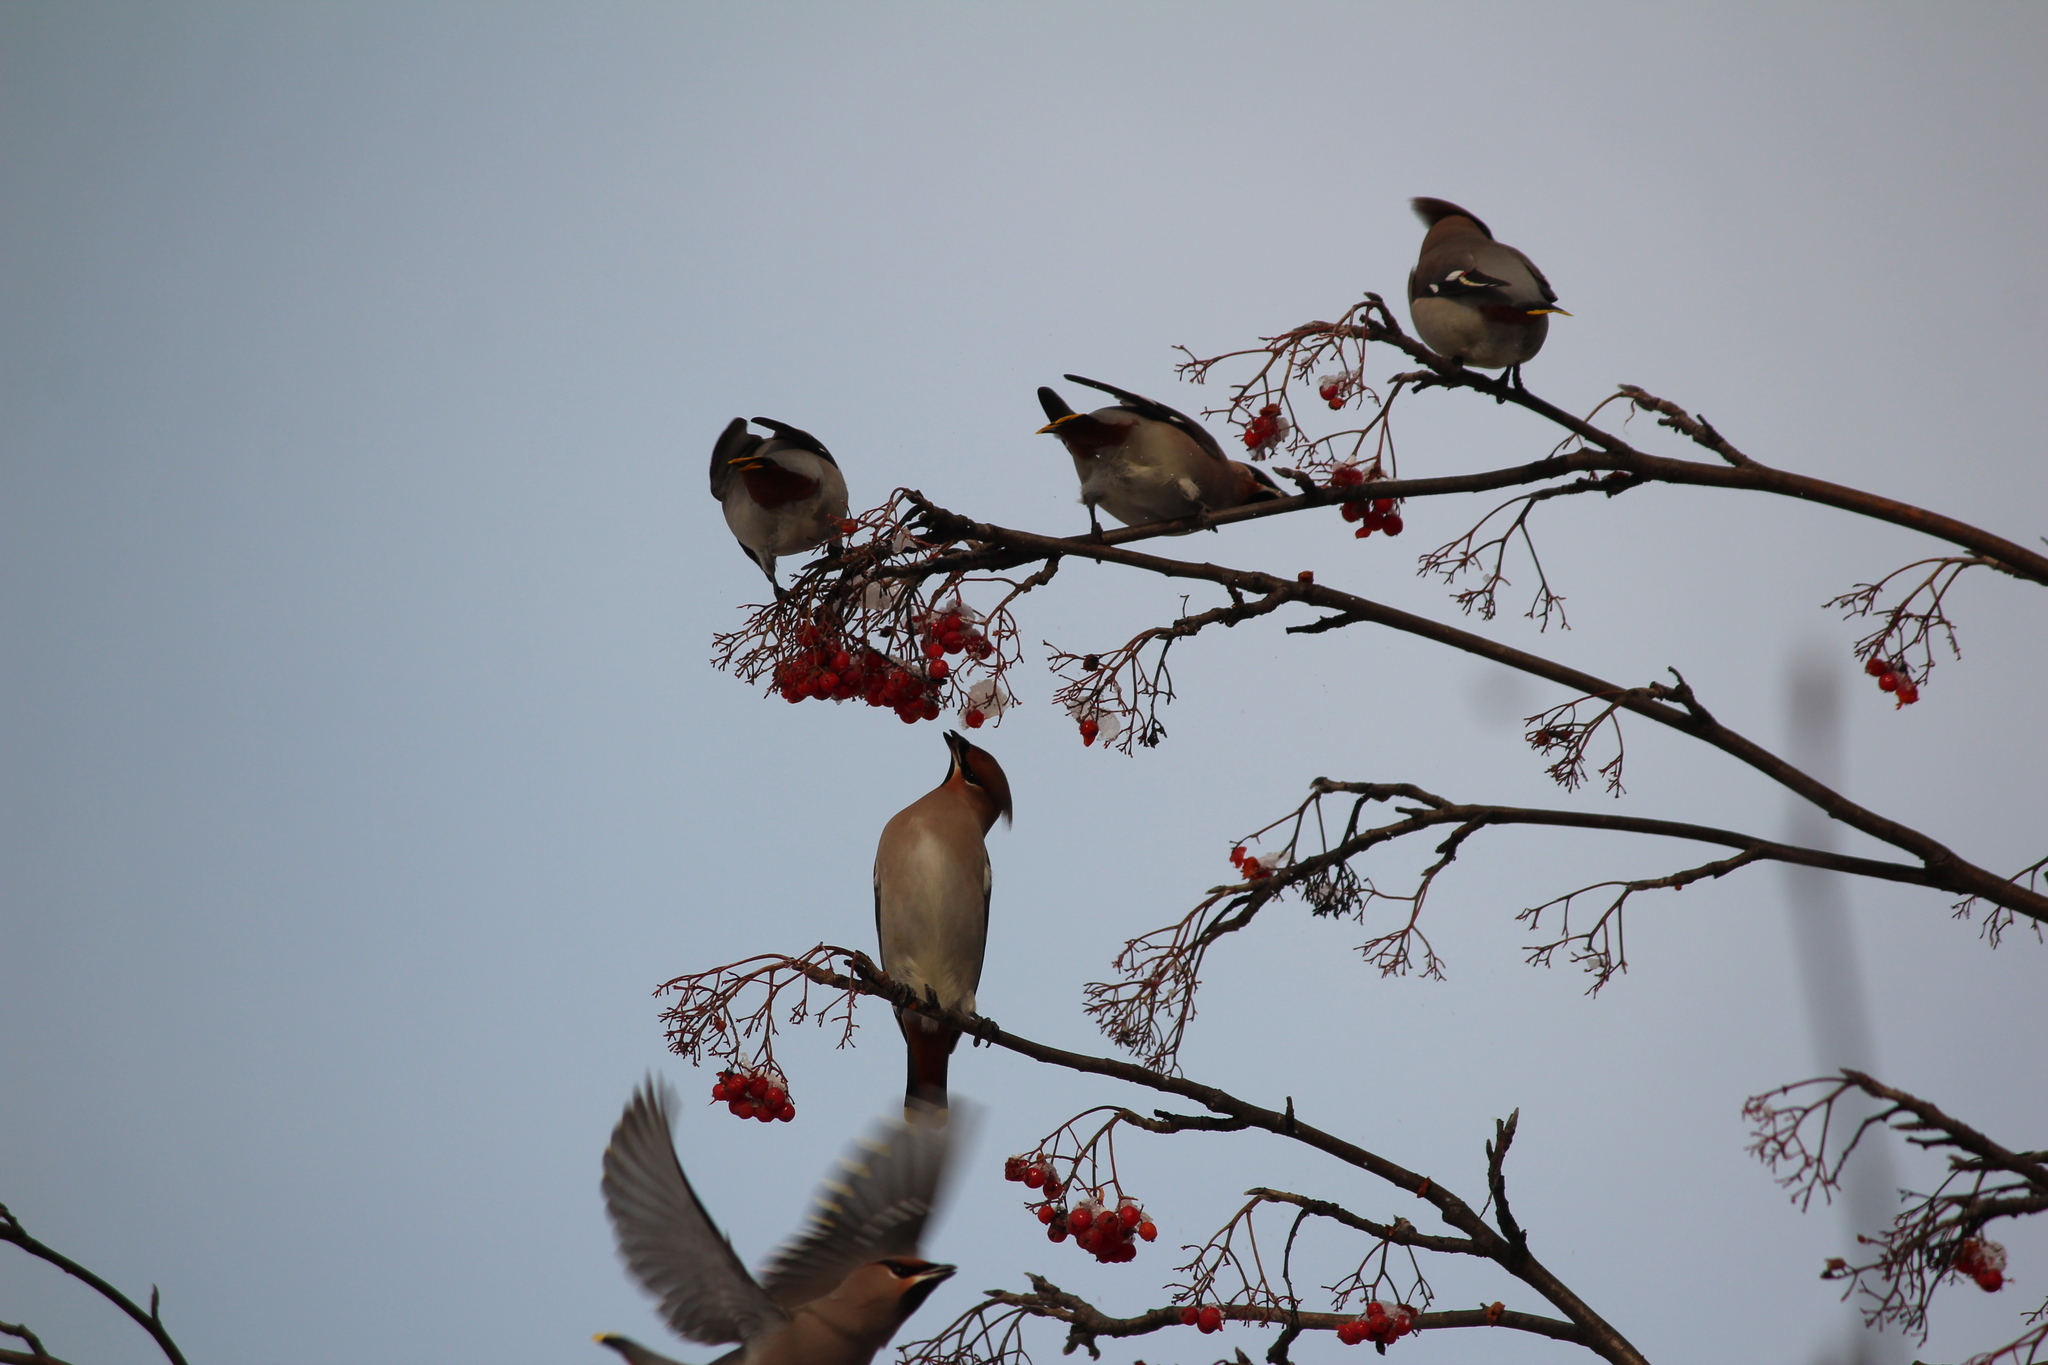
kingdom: Animalia
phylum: Chordata
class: Aves
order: Passeriformes
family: Bombycillidae
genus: Bombycilla
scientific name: Bombycilla garrulus
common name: Bohemian waxwing
